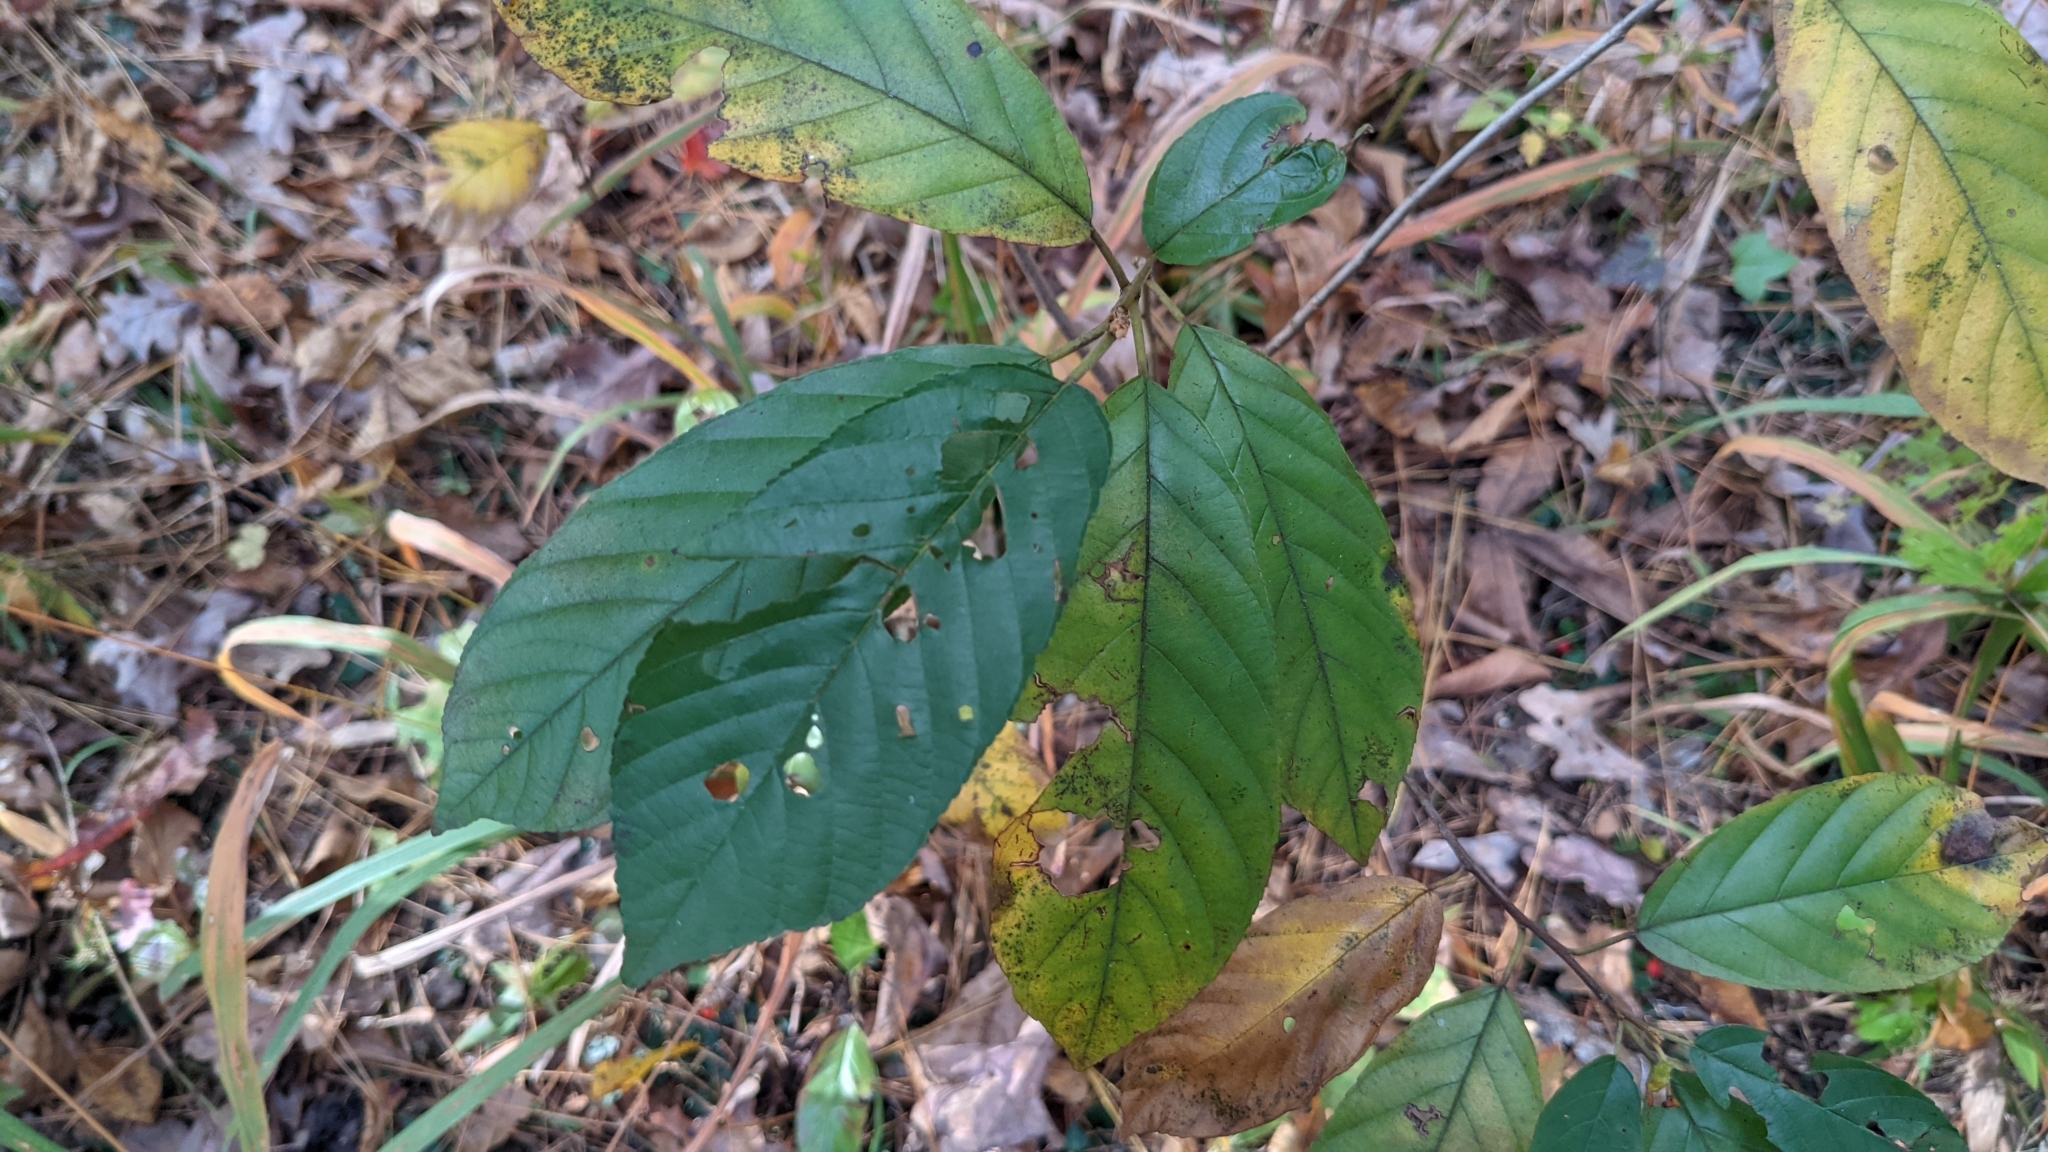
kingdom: Plantae
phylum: Tracheophyta
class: Magnoliopsida
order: Rosales
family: Rhamnaceae
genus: Frangula
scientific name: Frangula caroliniana
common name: Carolina buckthorn
